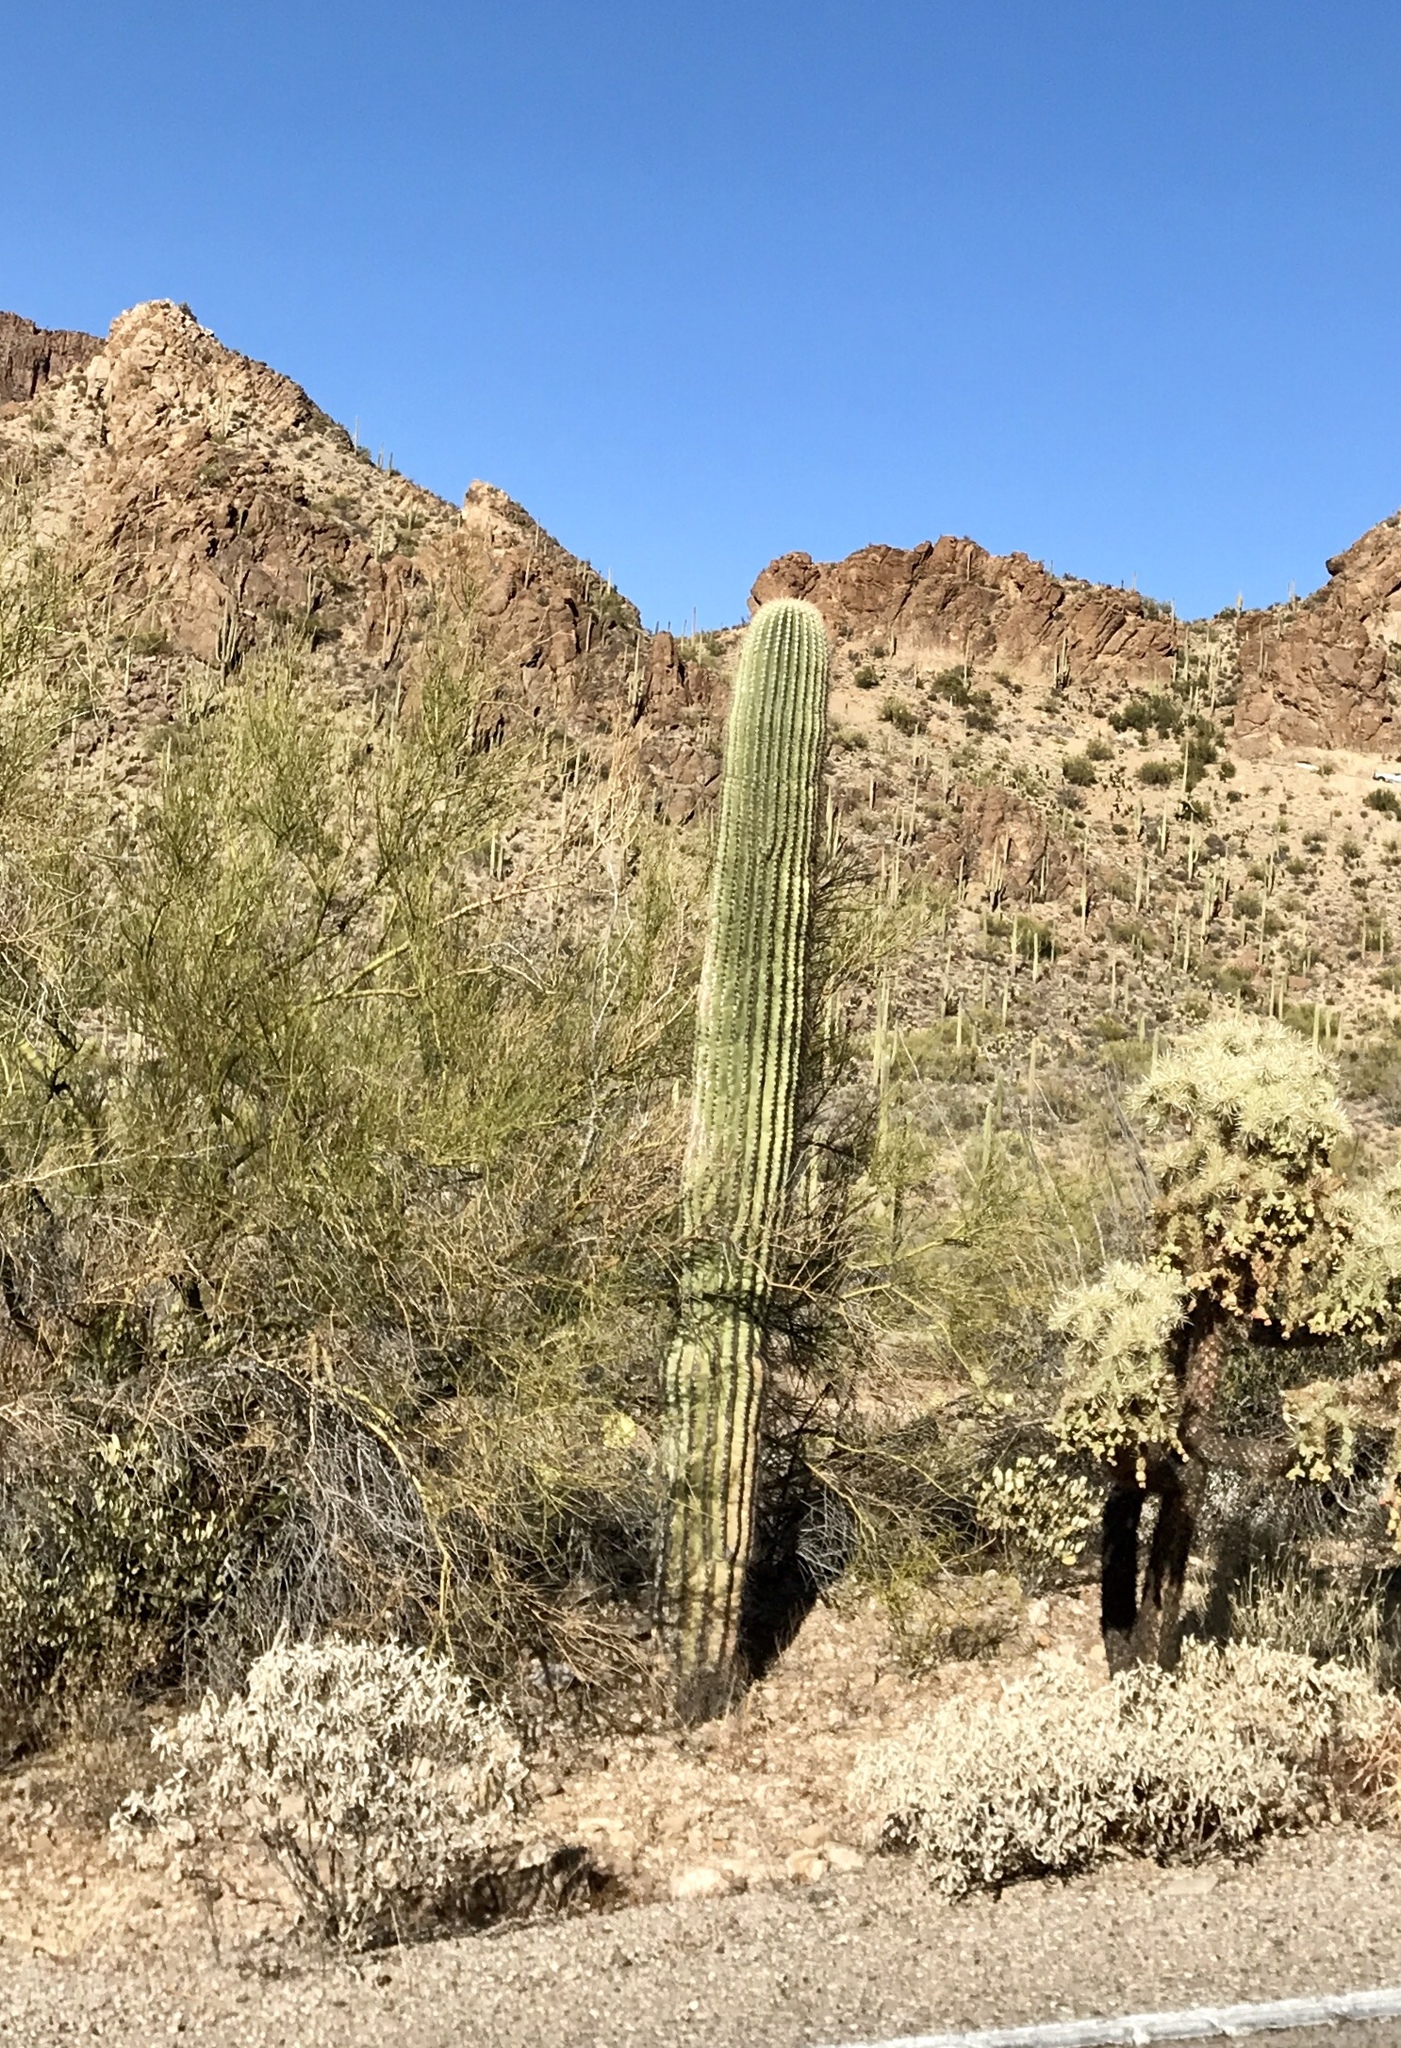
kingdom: Plantae
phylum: Tracheophyta
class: Magnoliopsida
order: Caryophyllales
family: Cactaceae
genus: Carnegiea
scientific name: Carnegiea gigantea
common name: Saguaro
